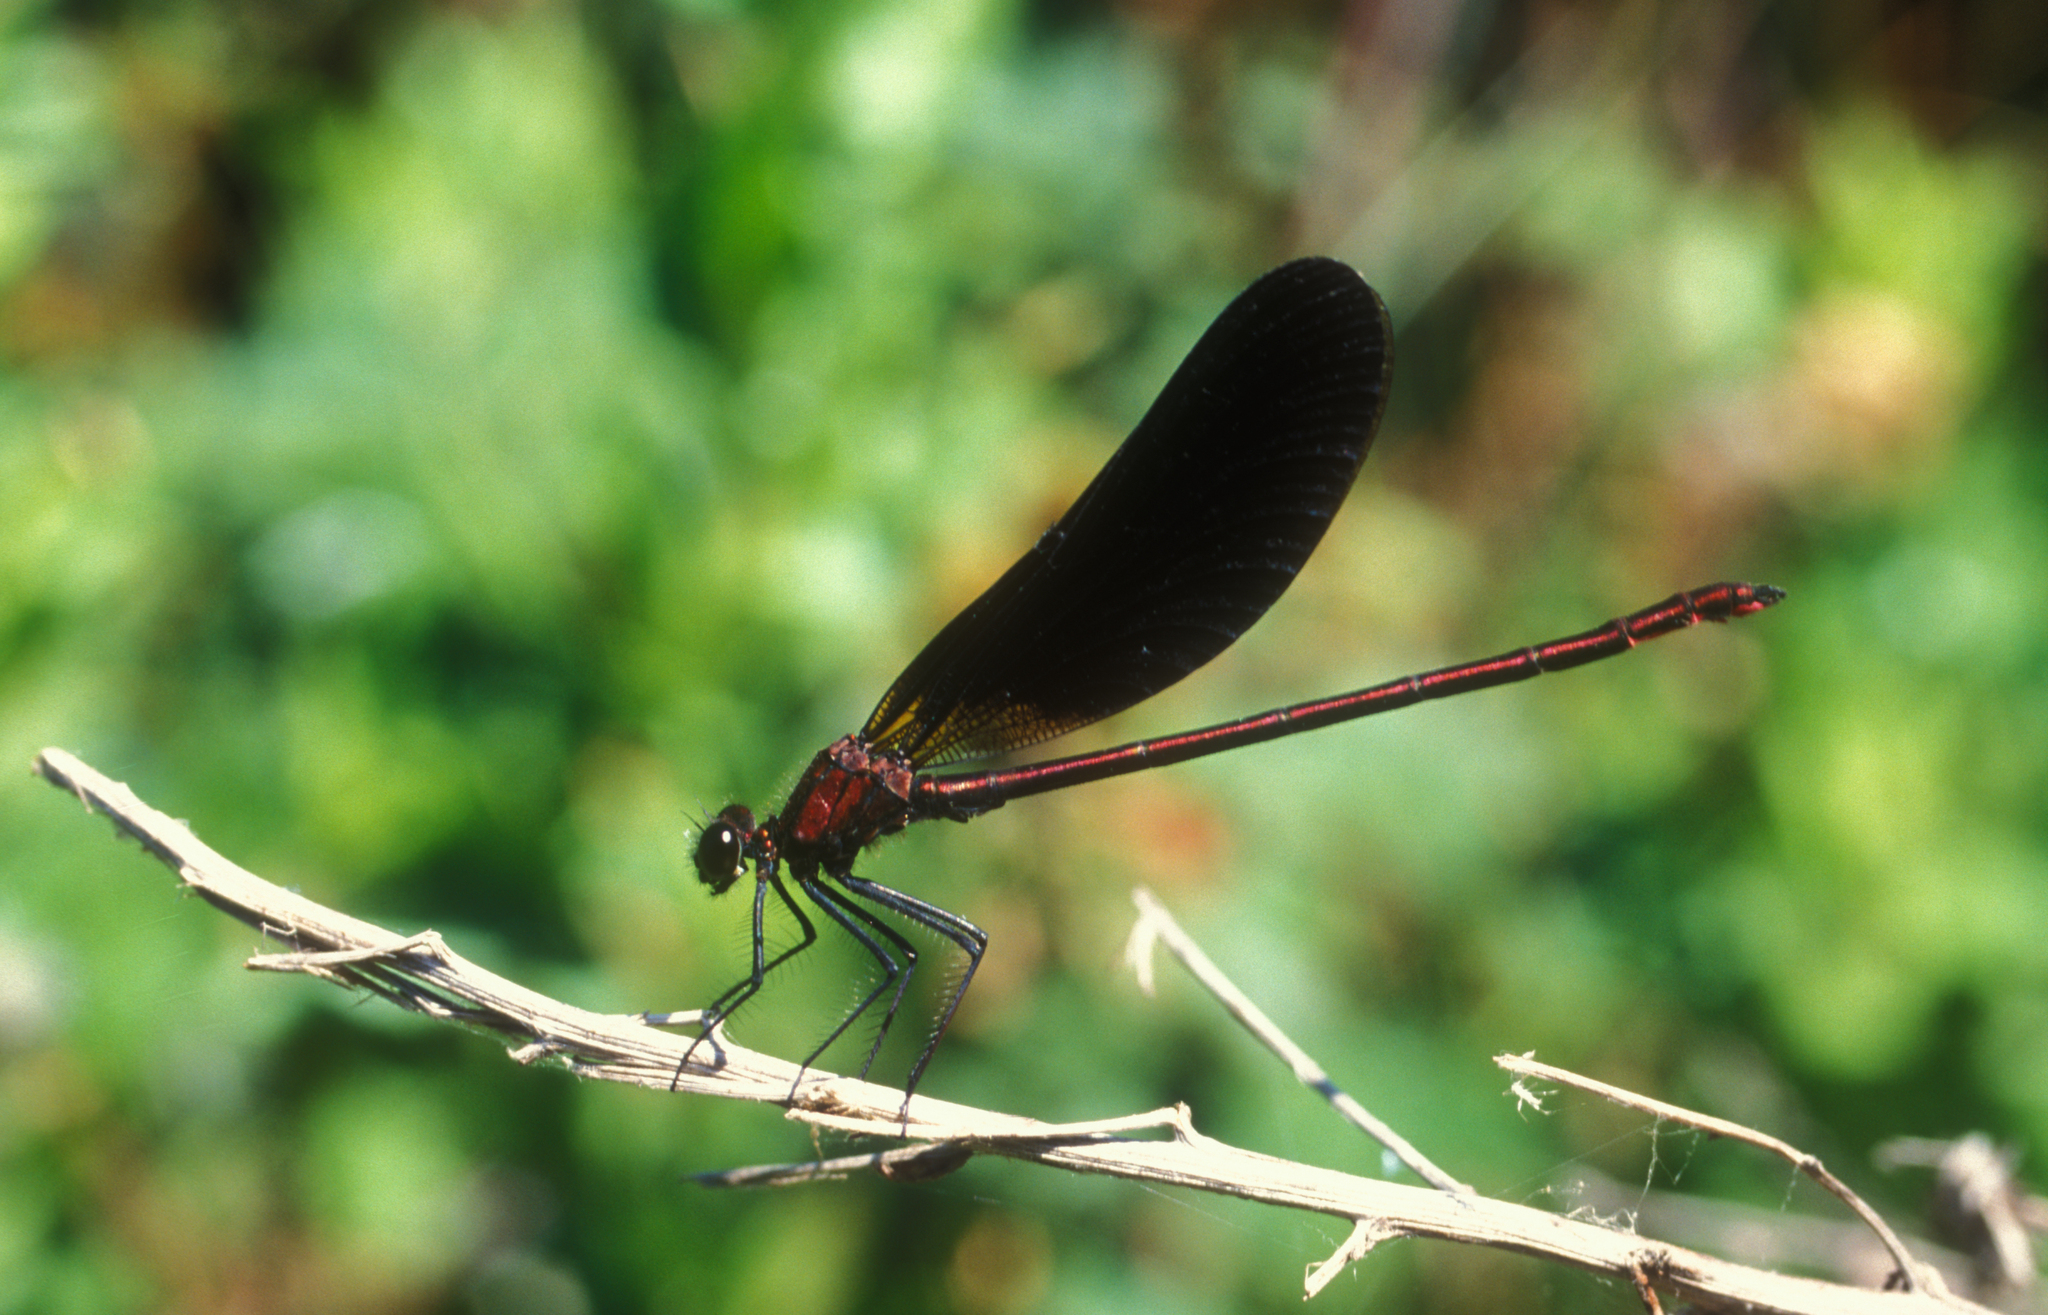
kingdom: Animalia
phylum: Arthropoda
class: Insecta
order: Odonata
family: Calopterygidae
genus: Calopteryx
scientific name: Calopteryx haemorrhoidalis
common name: Copper demoiselle
